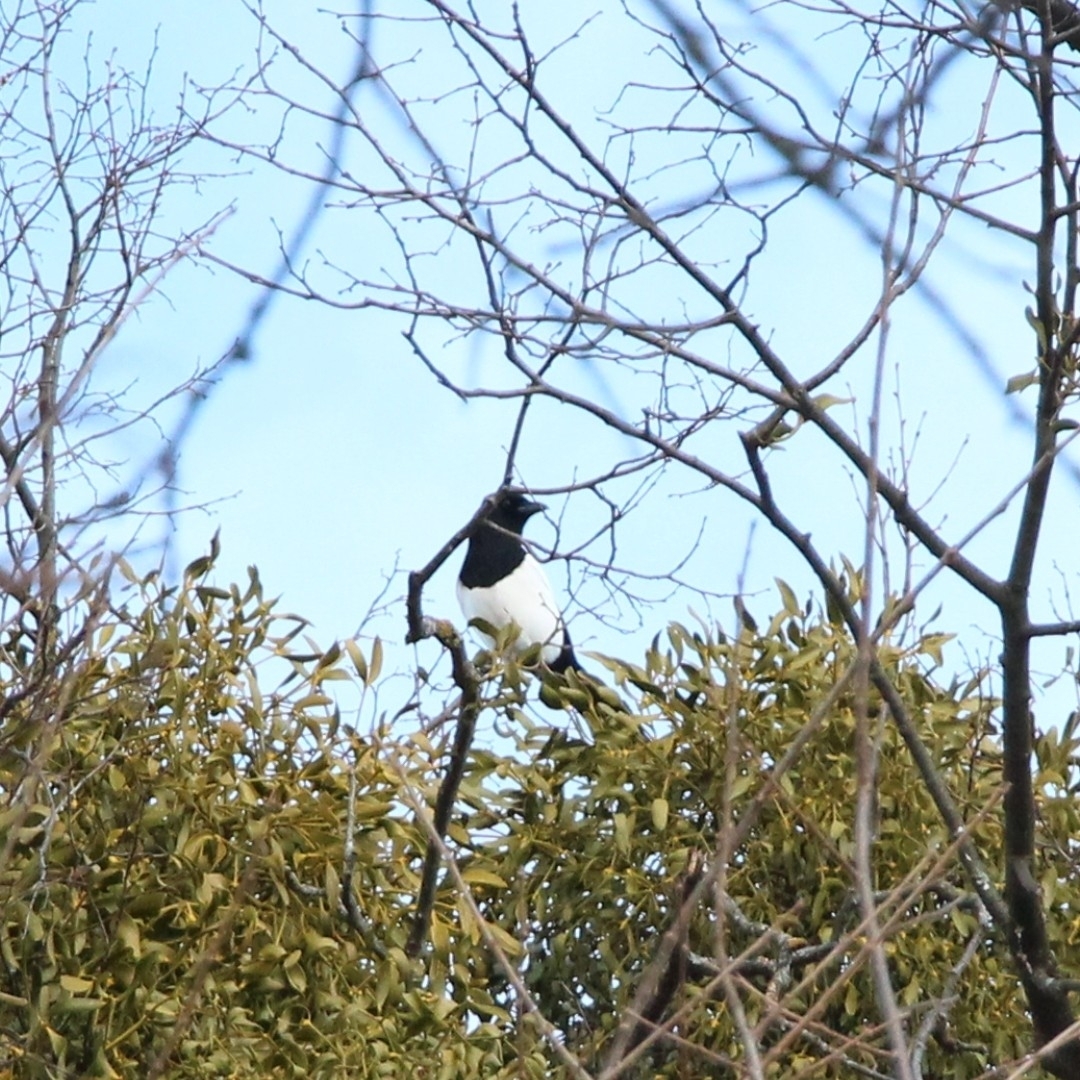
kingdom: Animalia
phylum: Chordata
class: Aves
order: Passeriformes
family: Corvidae
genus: Pica
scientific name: Pica pica
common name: Eurasian magpie
